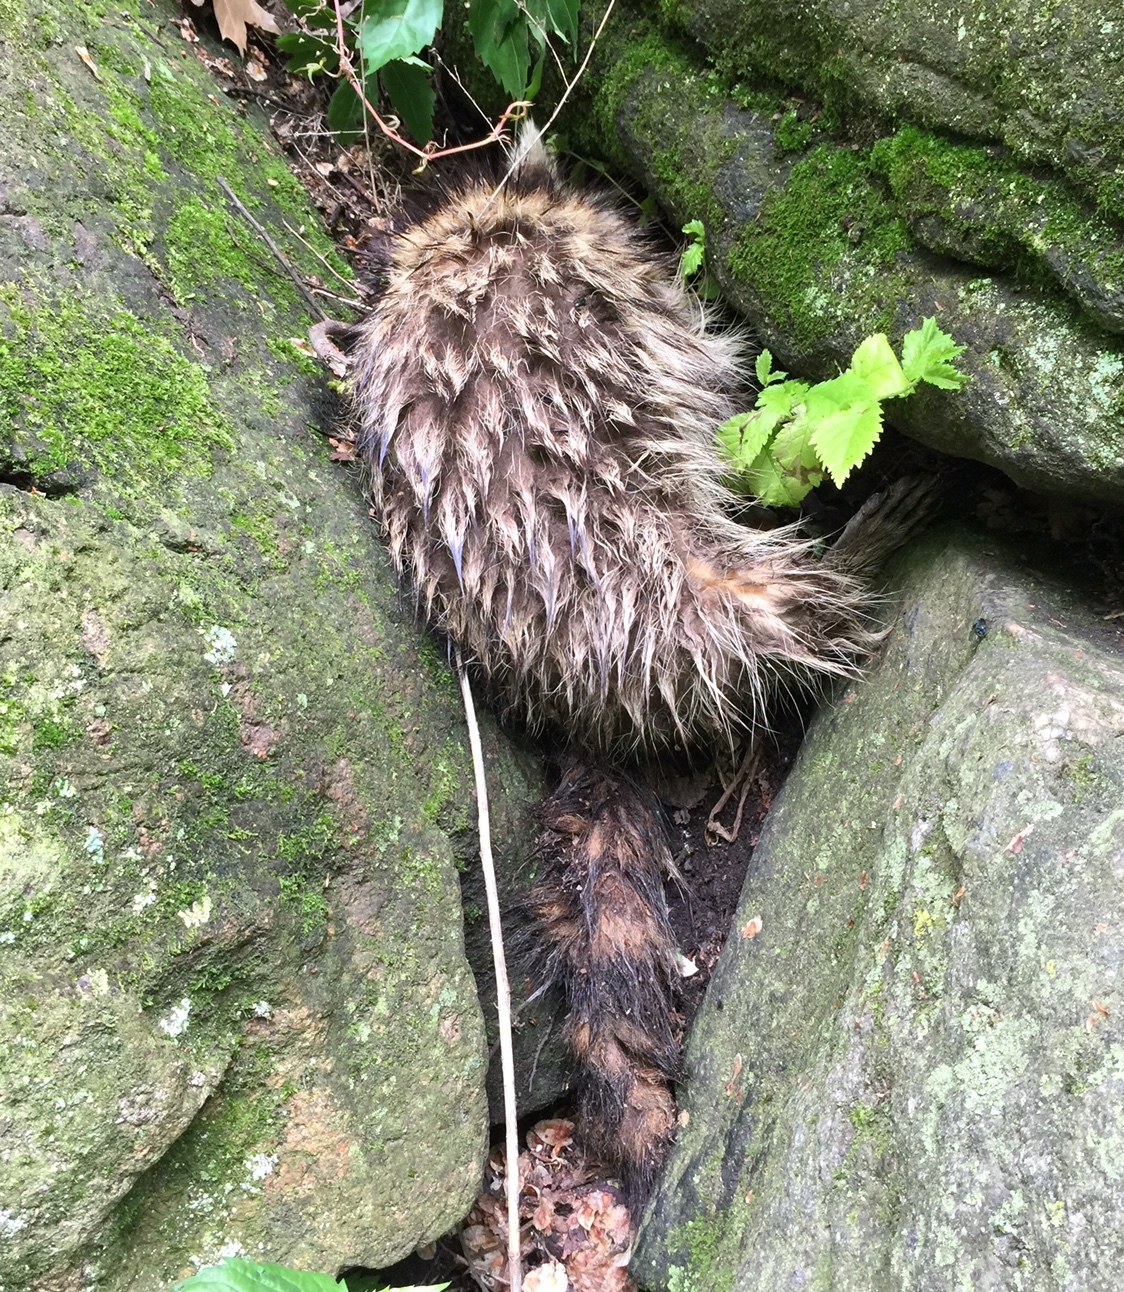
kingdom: Animalia
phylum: Chordata
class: Mammalia
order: Carnivora
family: Procyonidae
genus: Procyon
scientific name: Procyon lotor
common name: Raccoon
